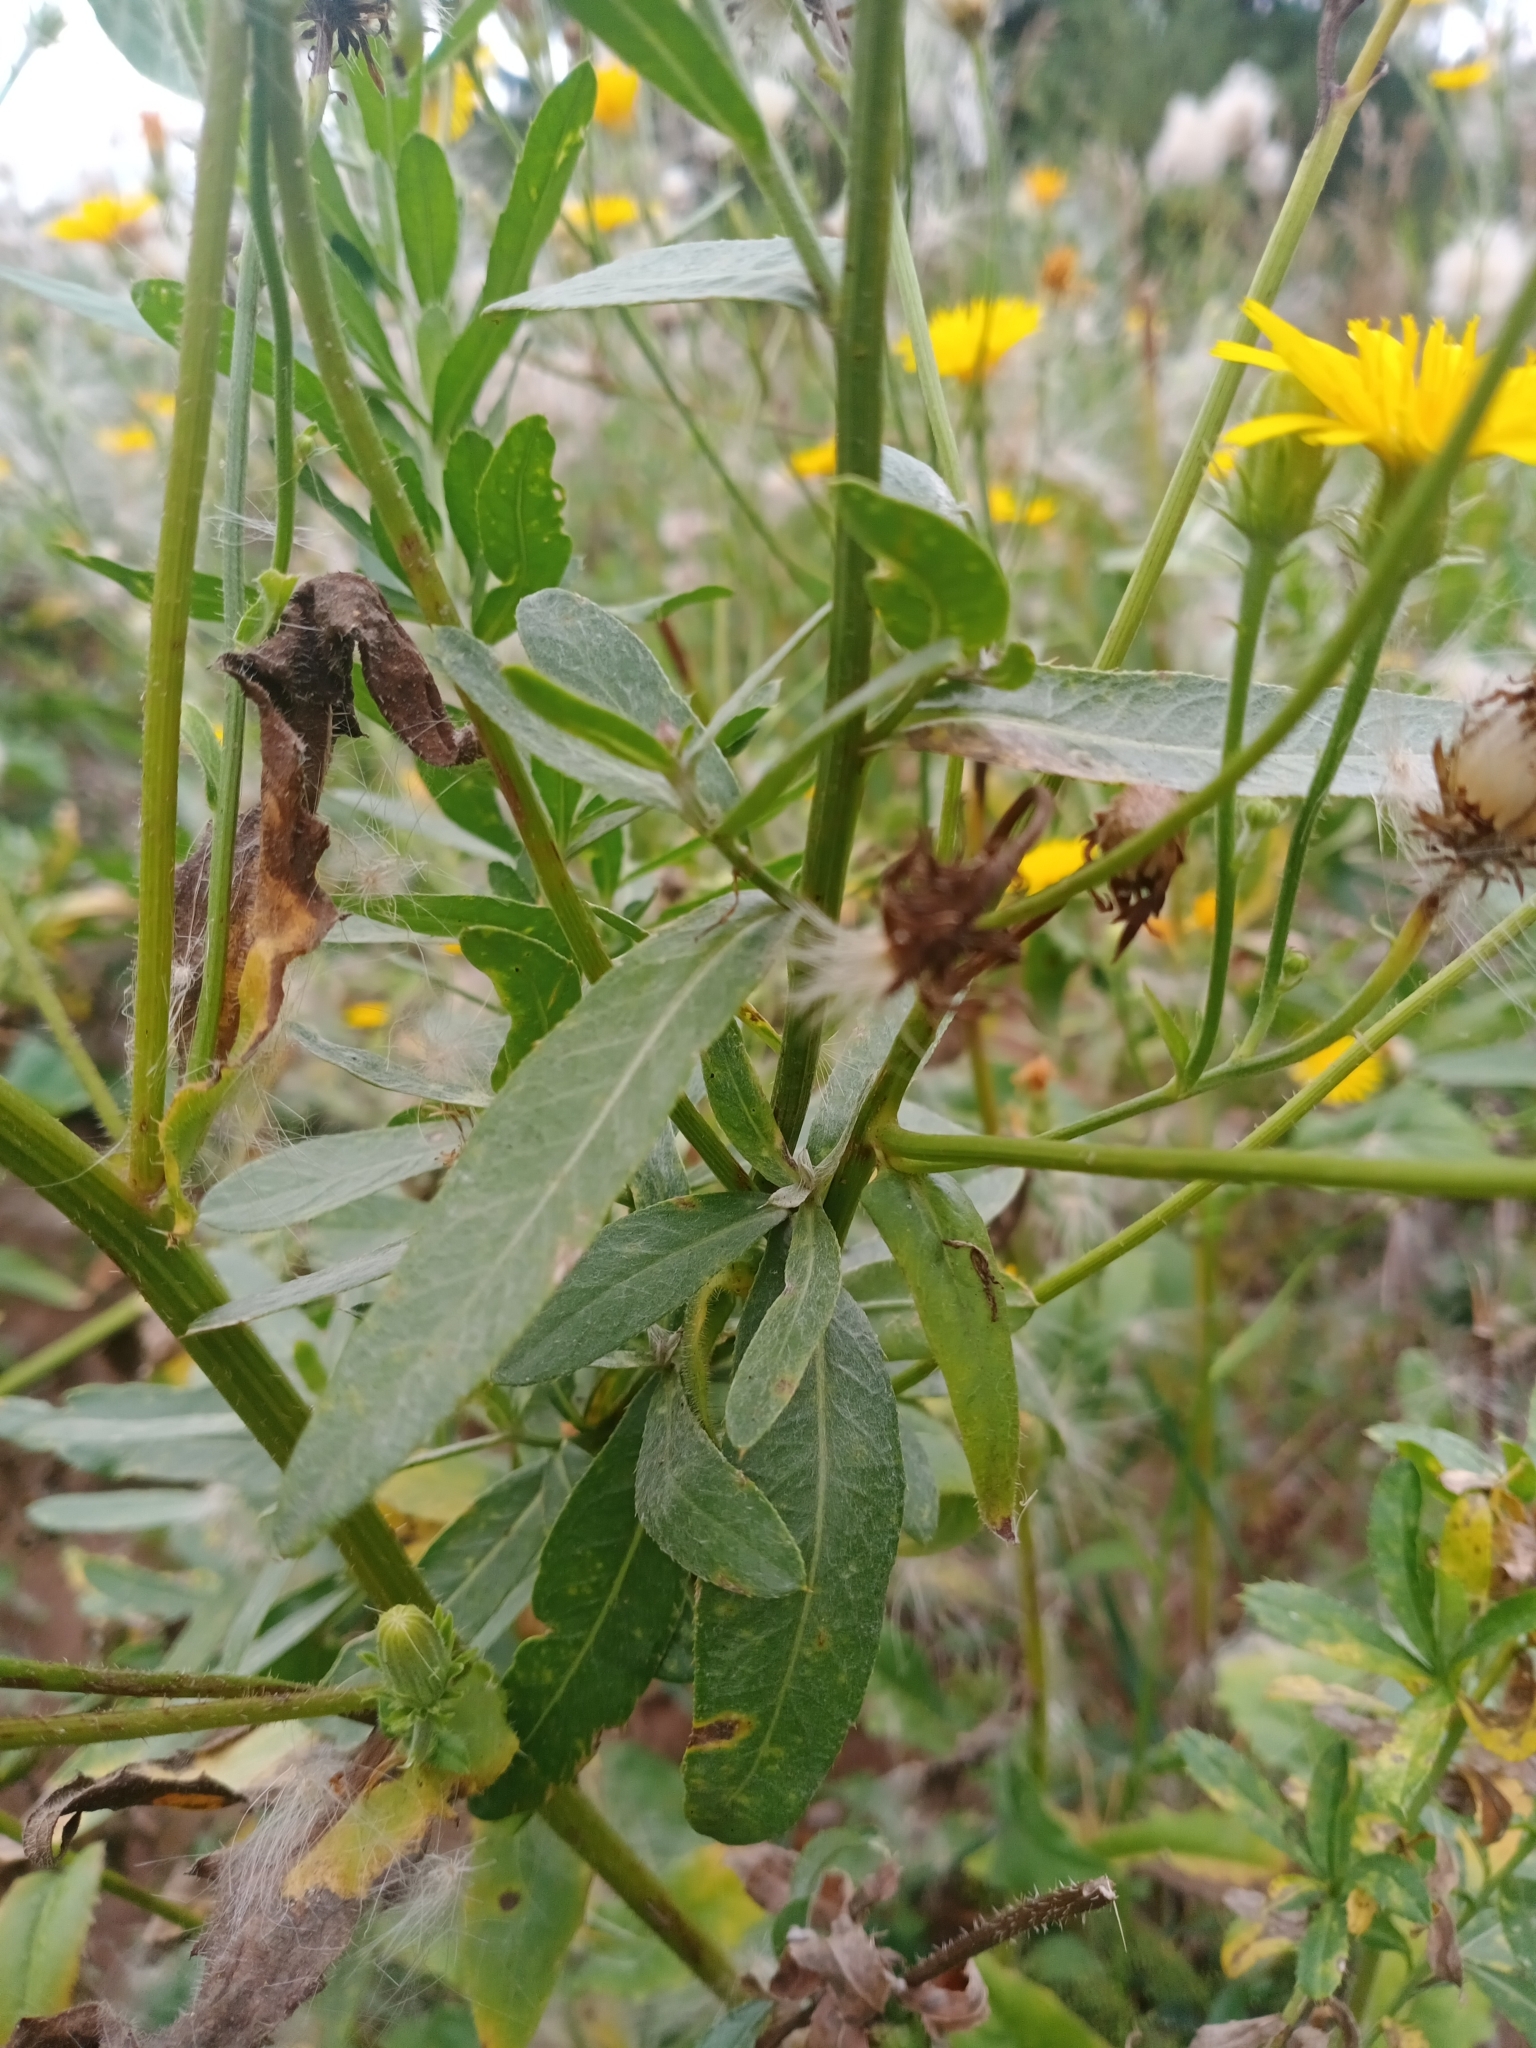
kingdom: Plantae
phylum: Tracheophyta
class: Magnoliopsida
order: Asterales
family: Asteraceae
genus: Picris
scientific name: Picris hieracioides
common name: Hawkweed oxtongue
